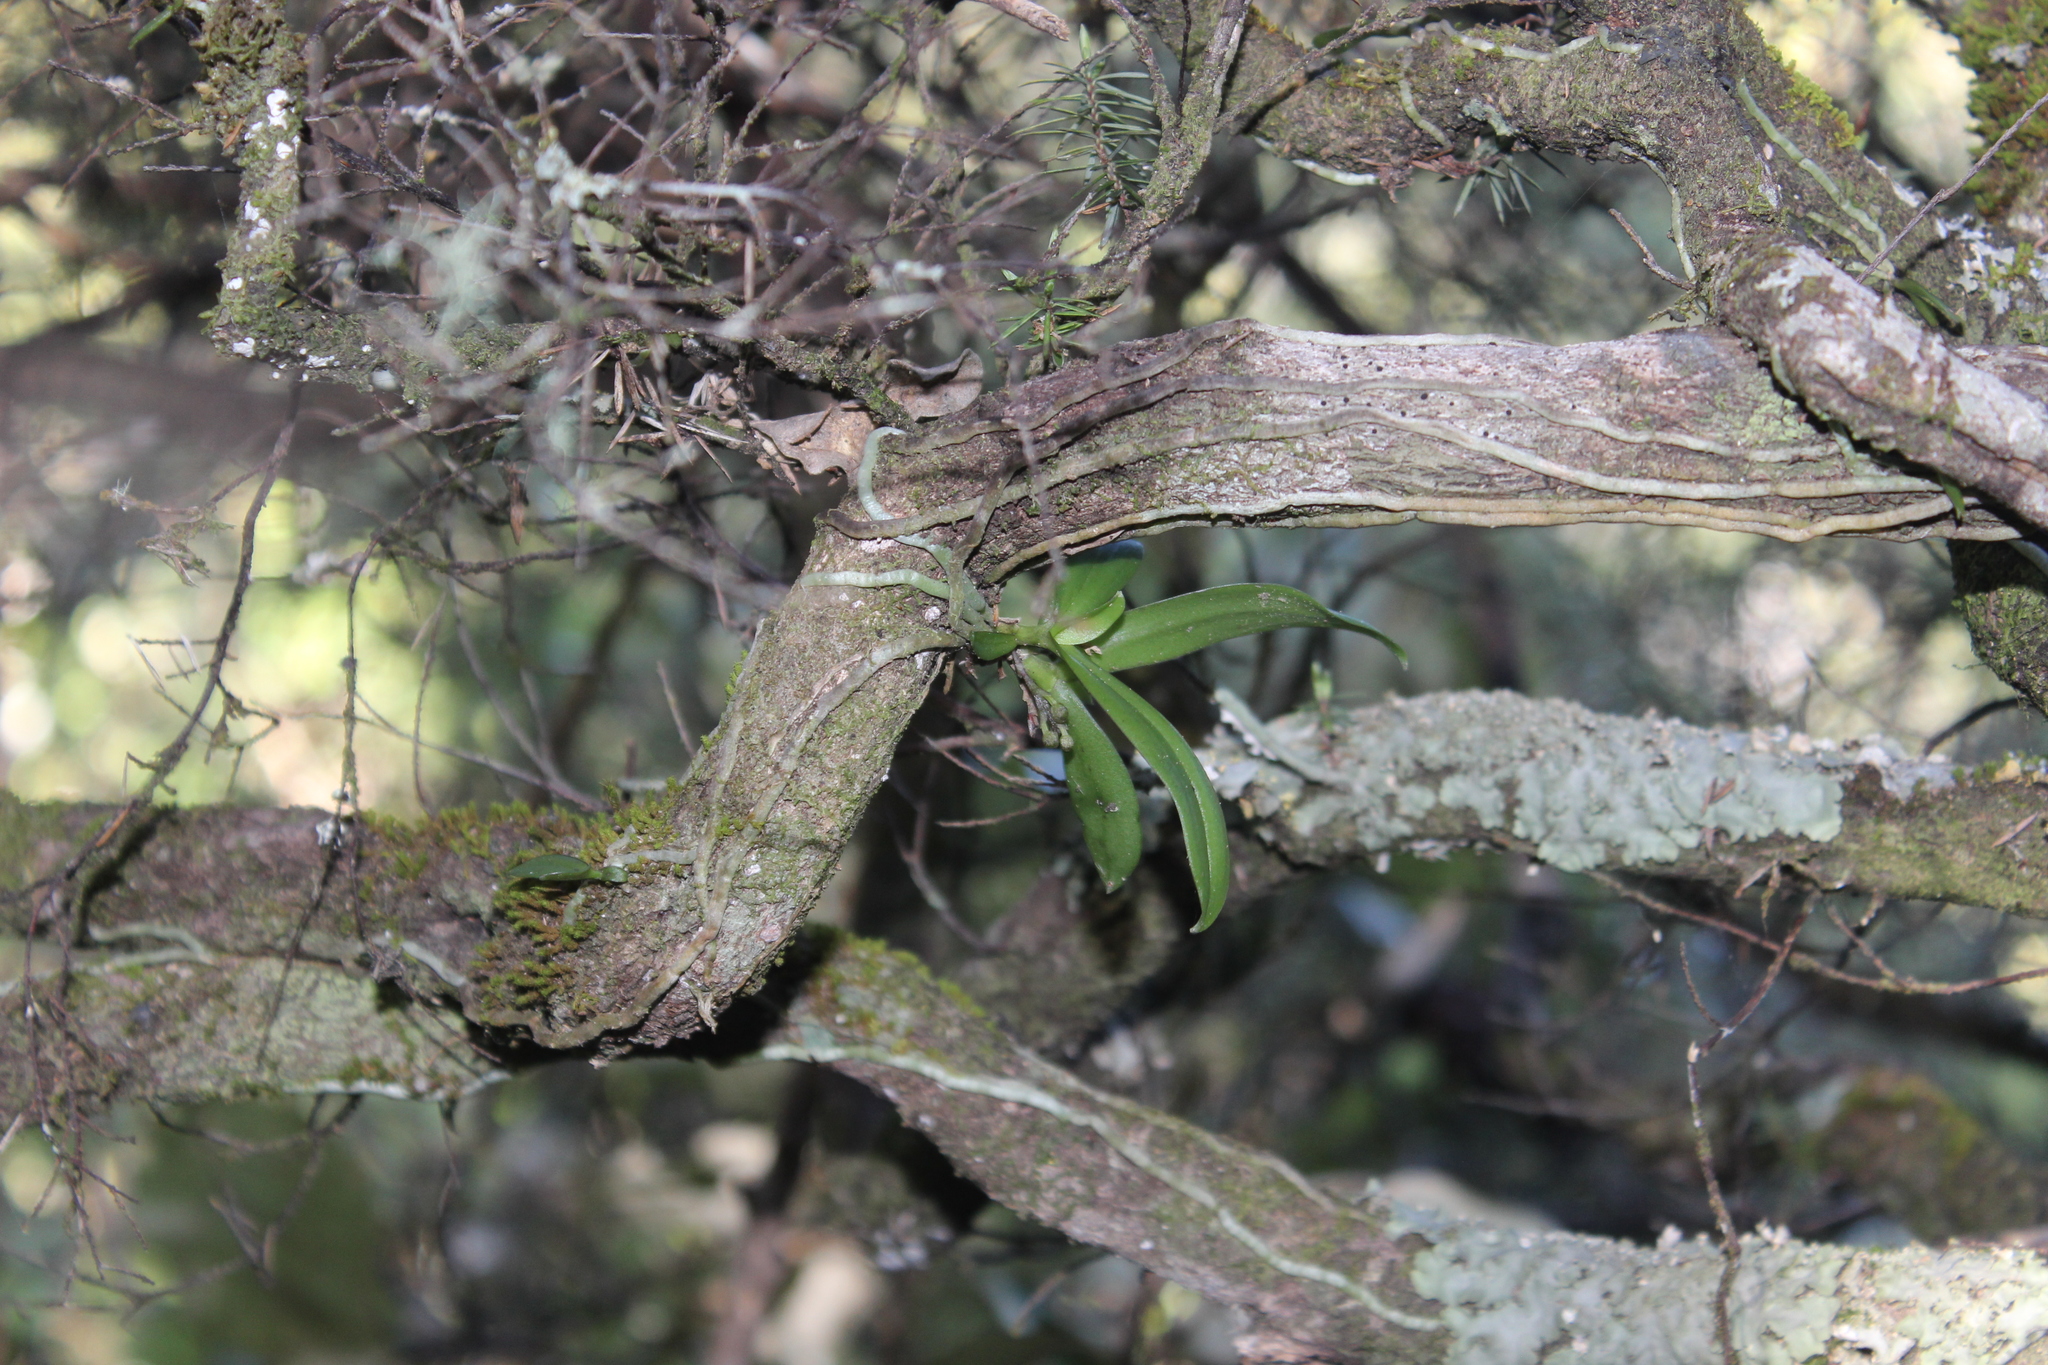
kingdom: Plantae
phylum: Tracheophyta
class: Liliopsida
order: Asparagales
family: Orchidaceae
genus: Drymoanthus
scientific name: Drymoanthus adversus
